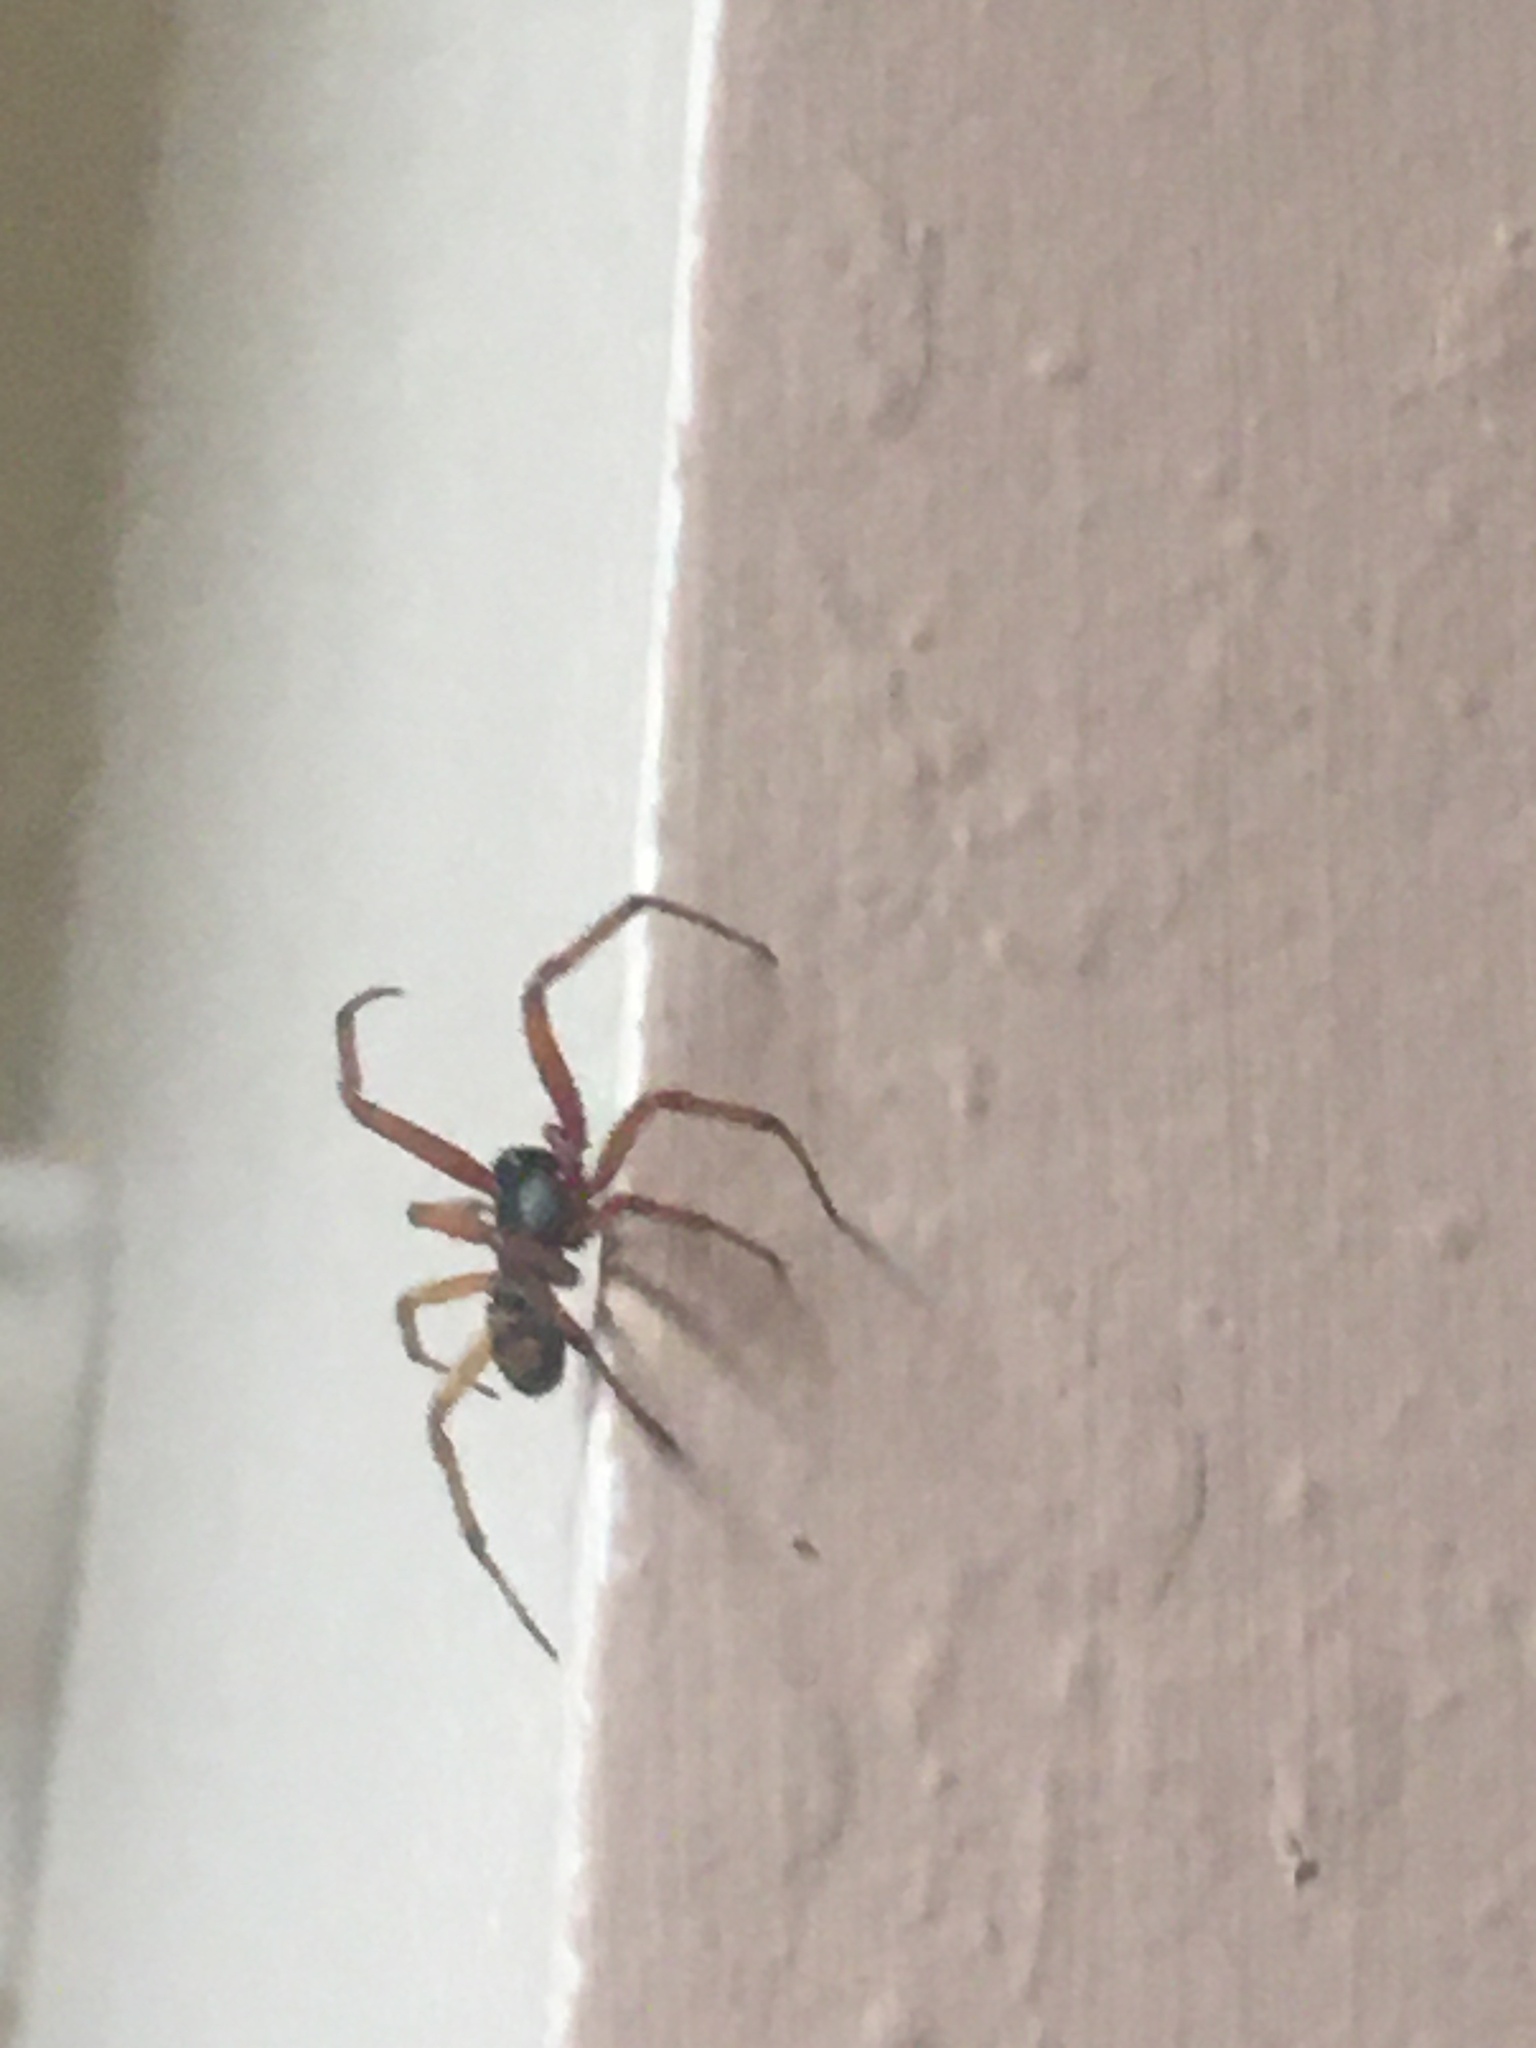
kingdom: Animalia
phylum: Arthropoda
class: Arachnida
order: Araneae
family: Theridiidae
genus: Steatoda
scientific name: Steatoda nobilis
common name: Cobweb weaver
